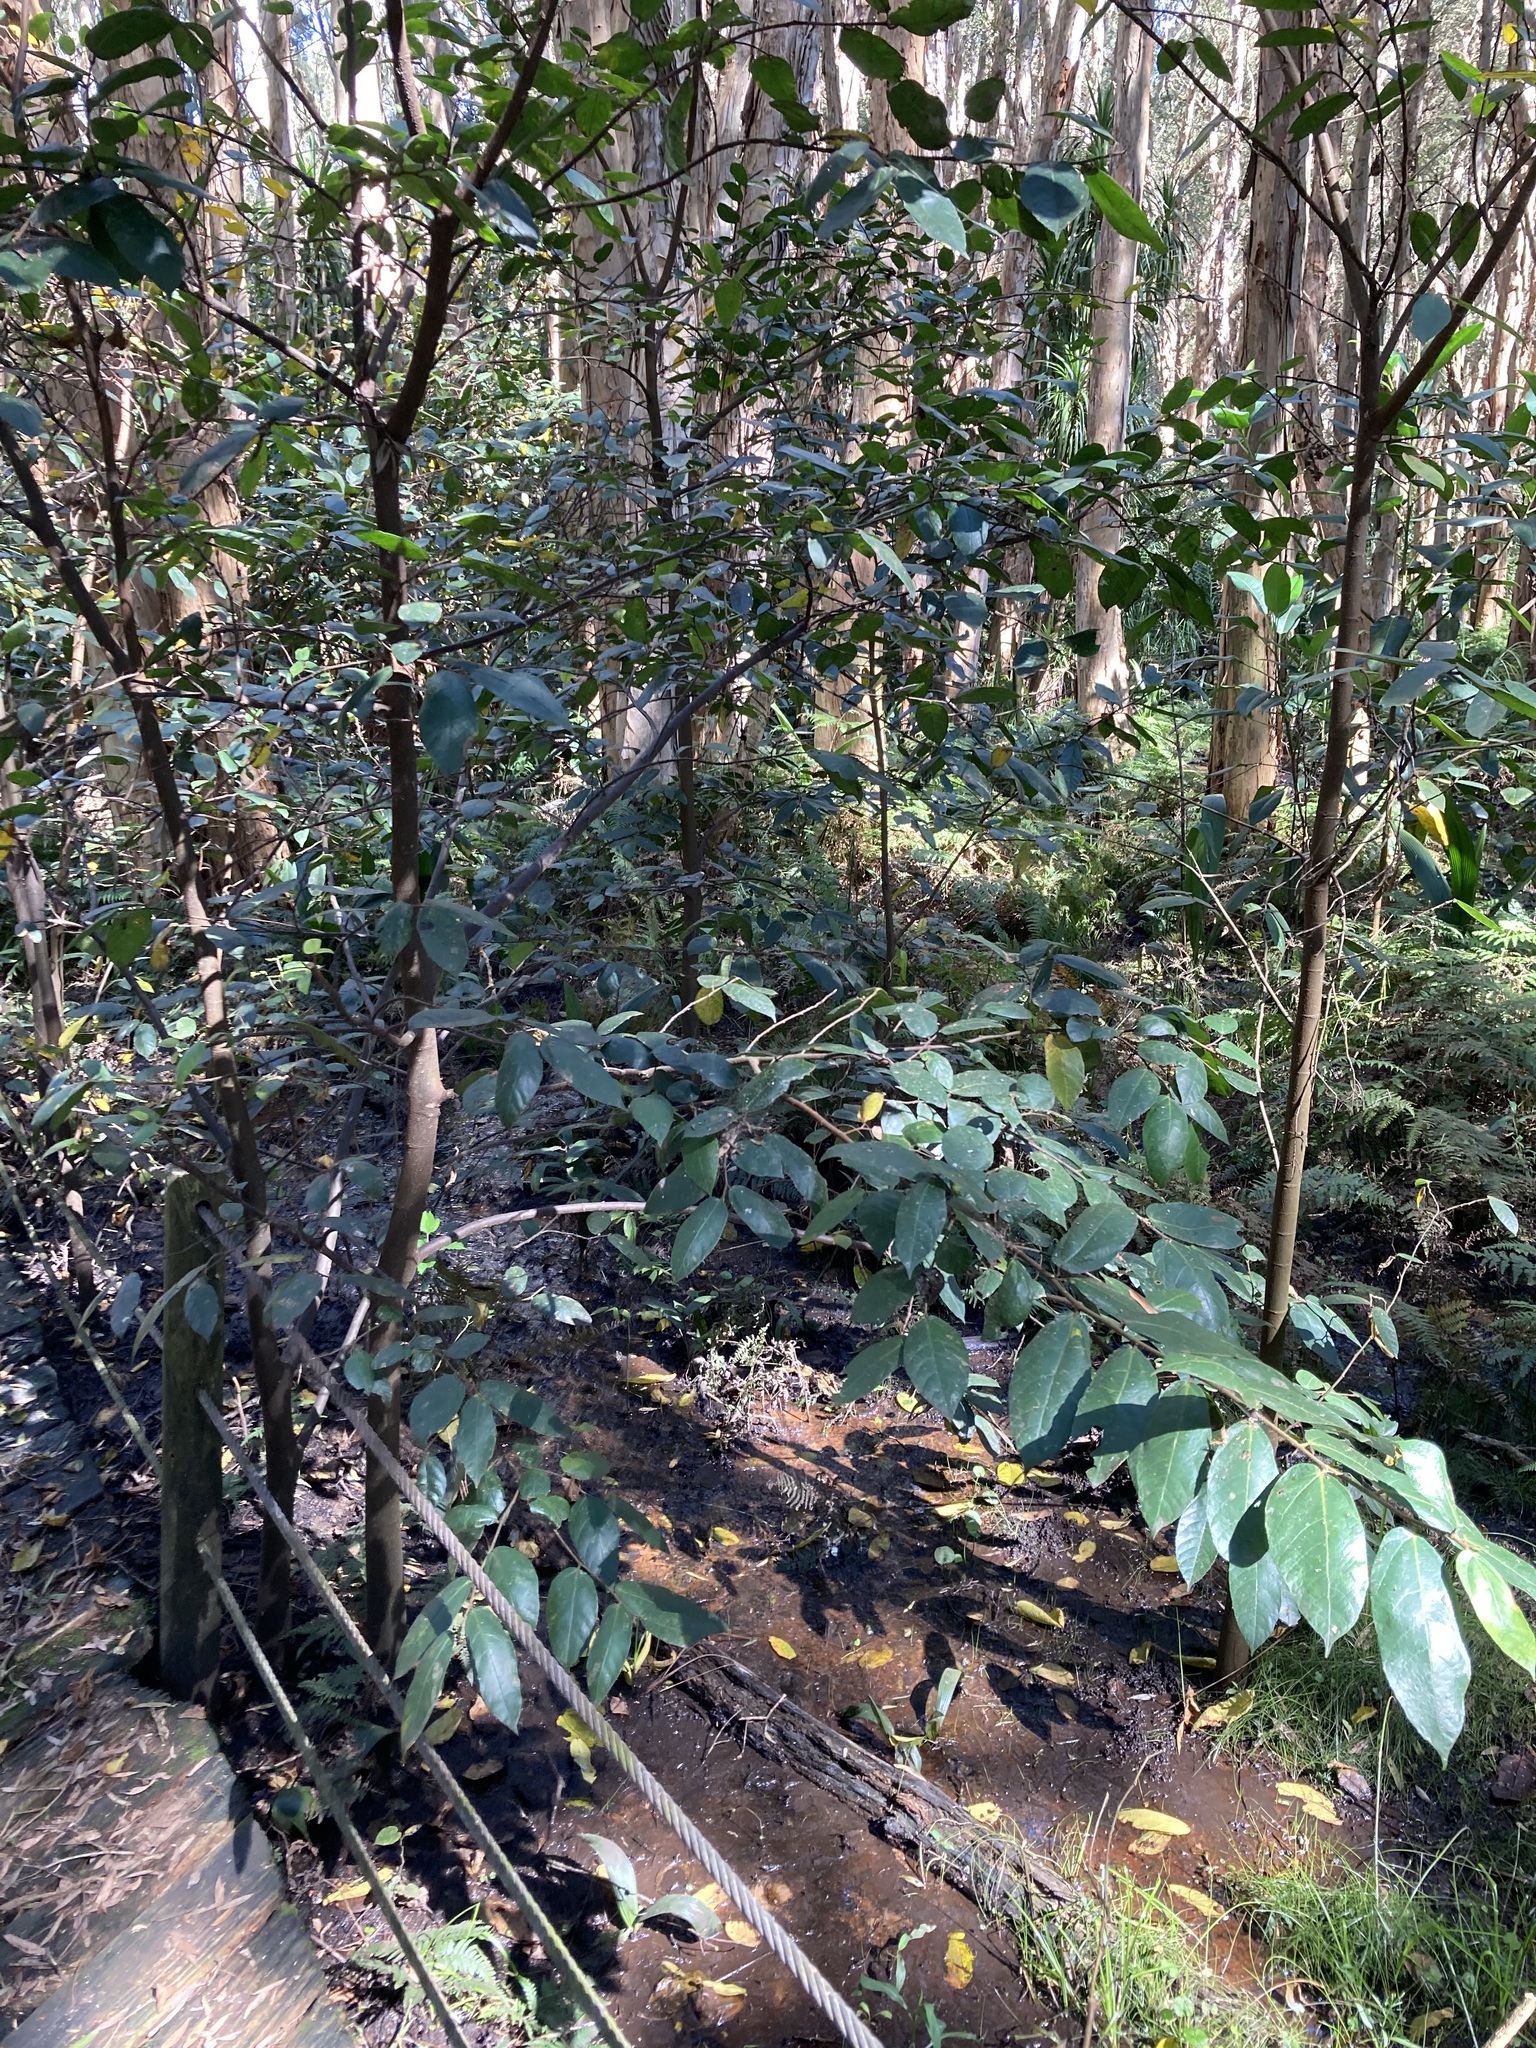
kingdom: Plantae
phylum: Tracheophyta
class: Magnoliopsida
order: Rosales
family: Moraceae
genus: Ficus
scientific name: Ficus coronata
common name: Creek sandpaper fig
